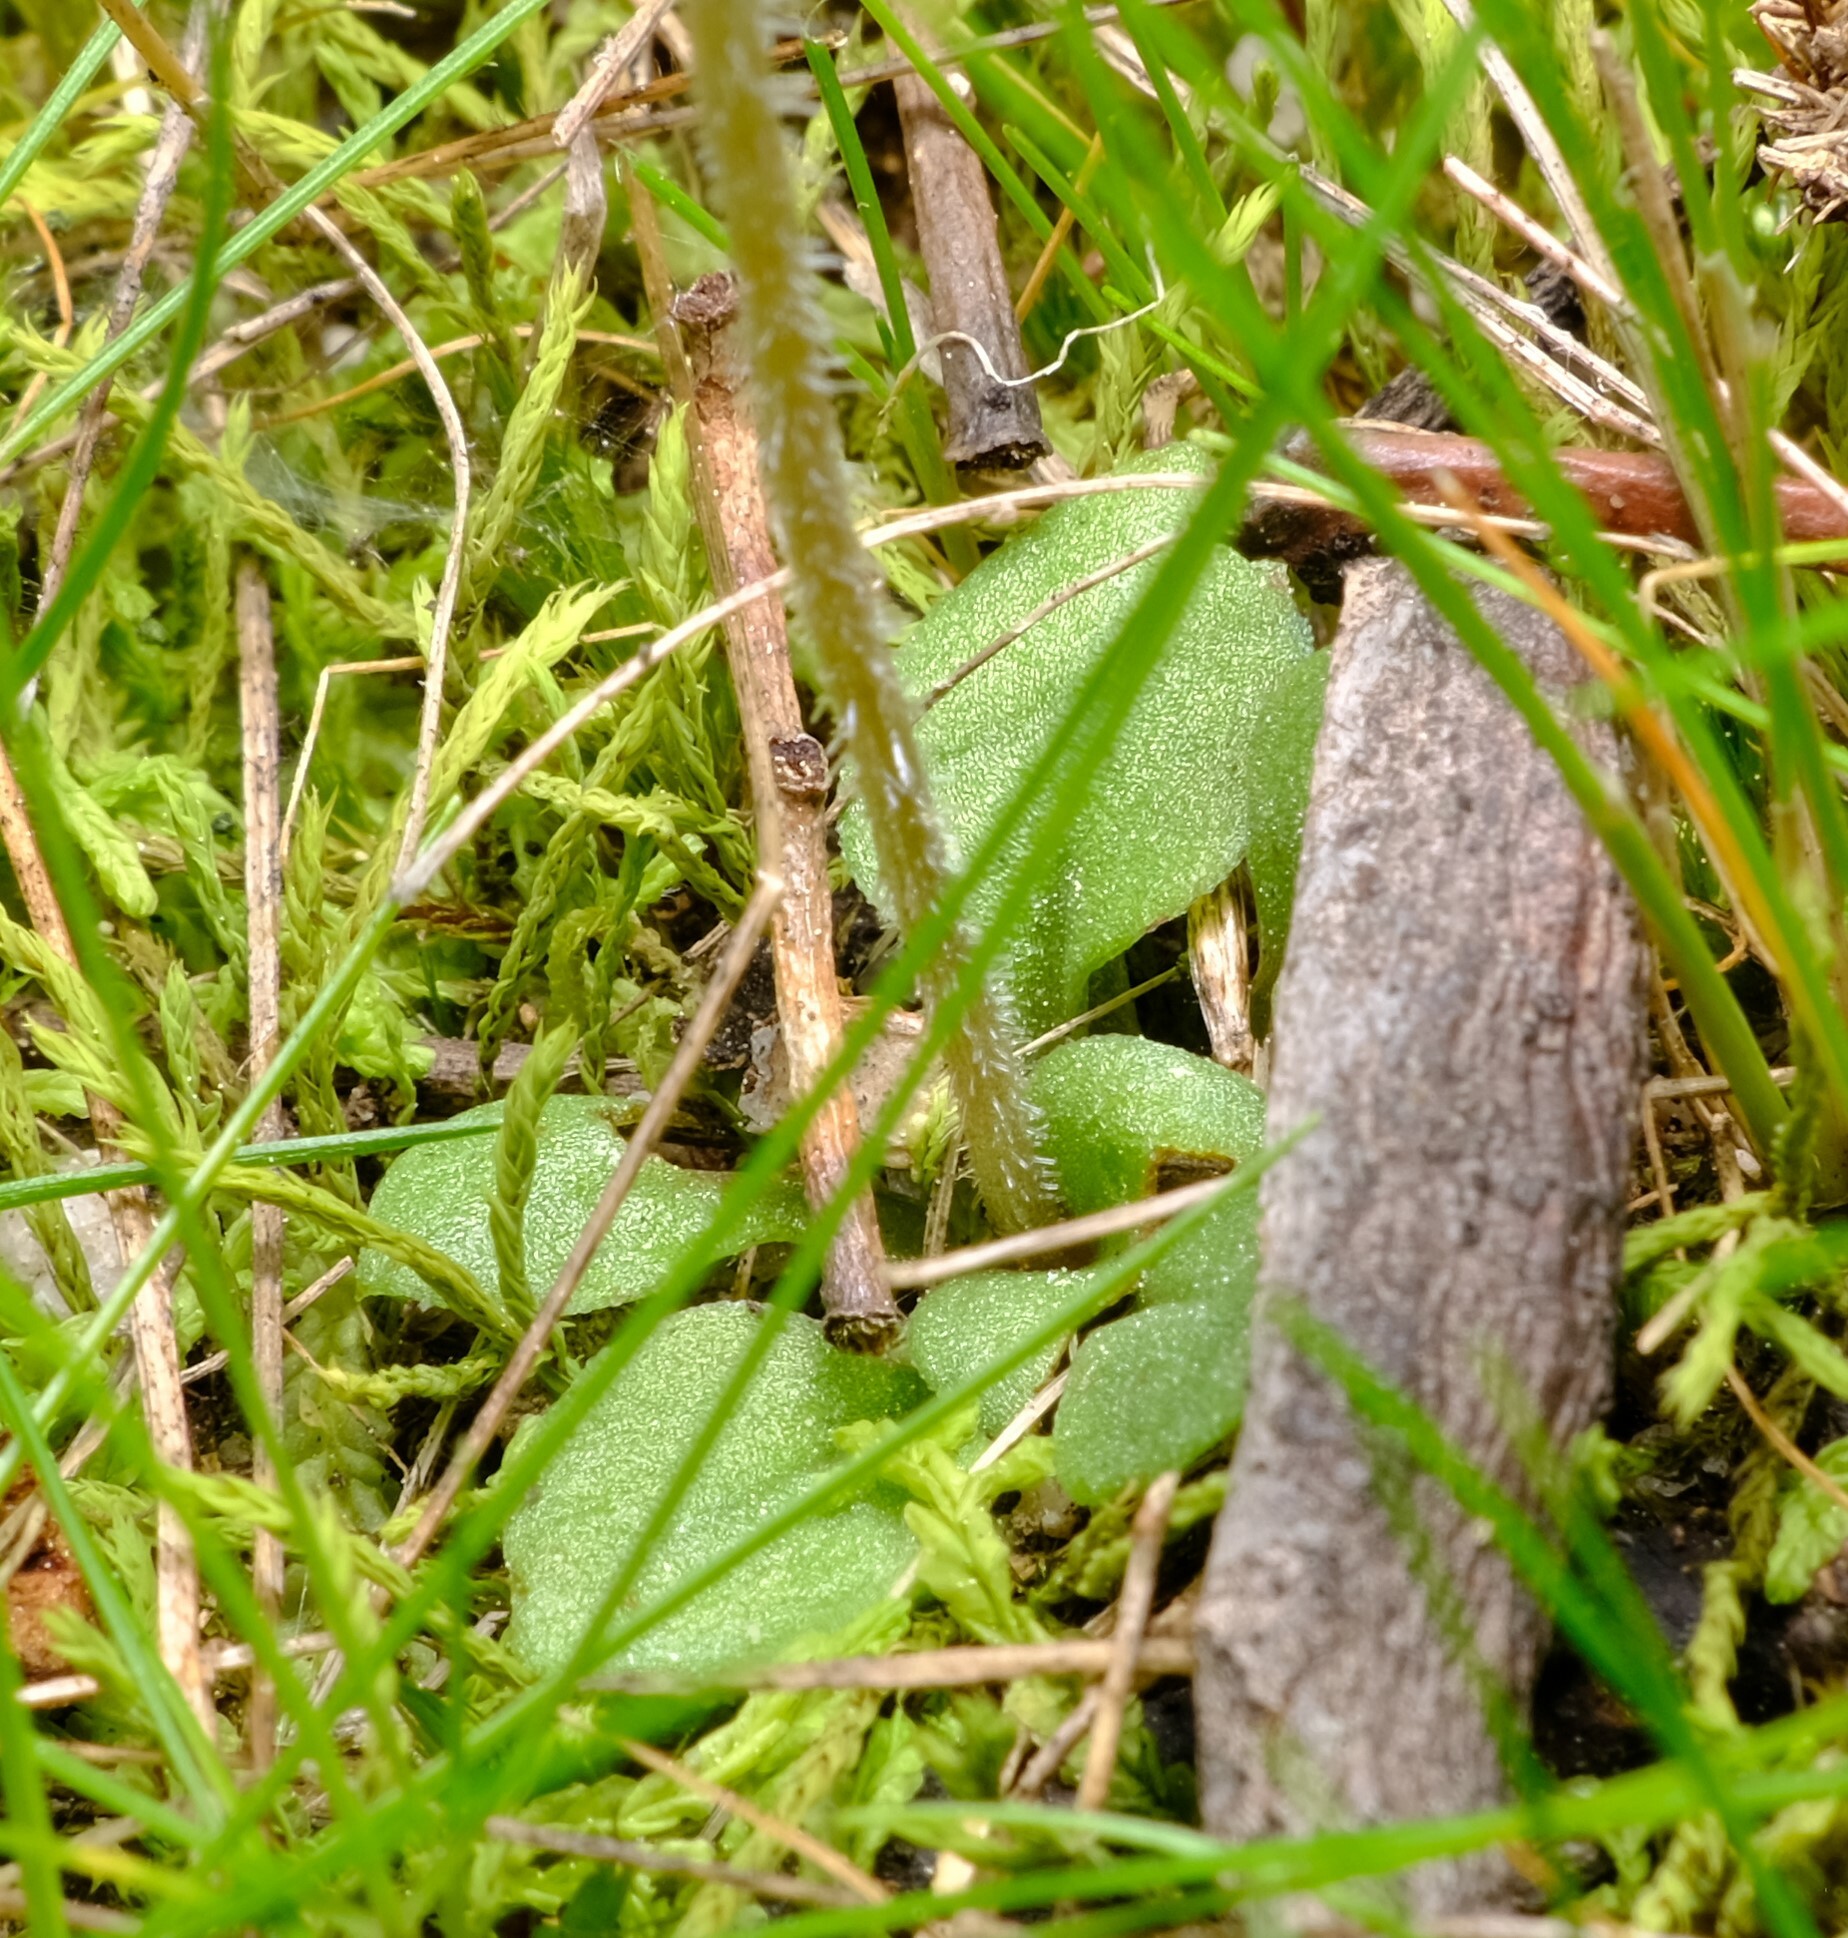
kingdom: Plantae
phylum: Tracheophyta
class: Liliopsida
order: Asparagales
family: Orchidaceae
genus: Pterostylis
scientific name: Pterostylis nana
